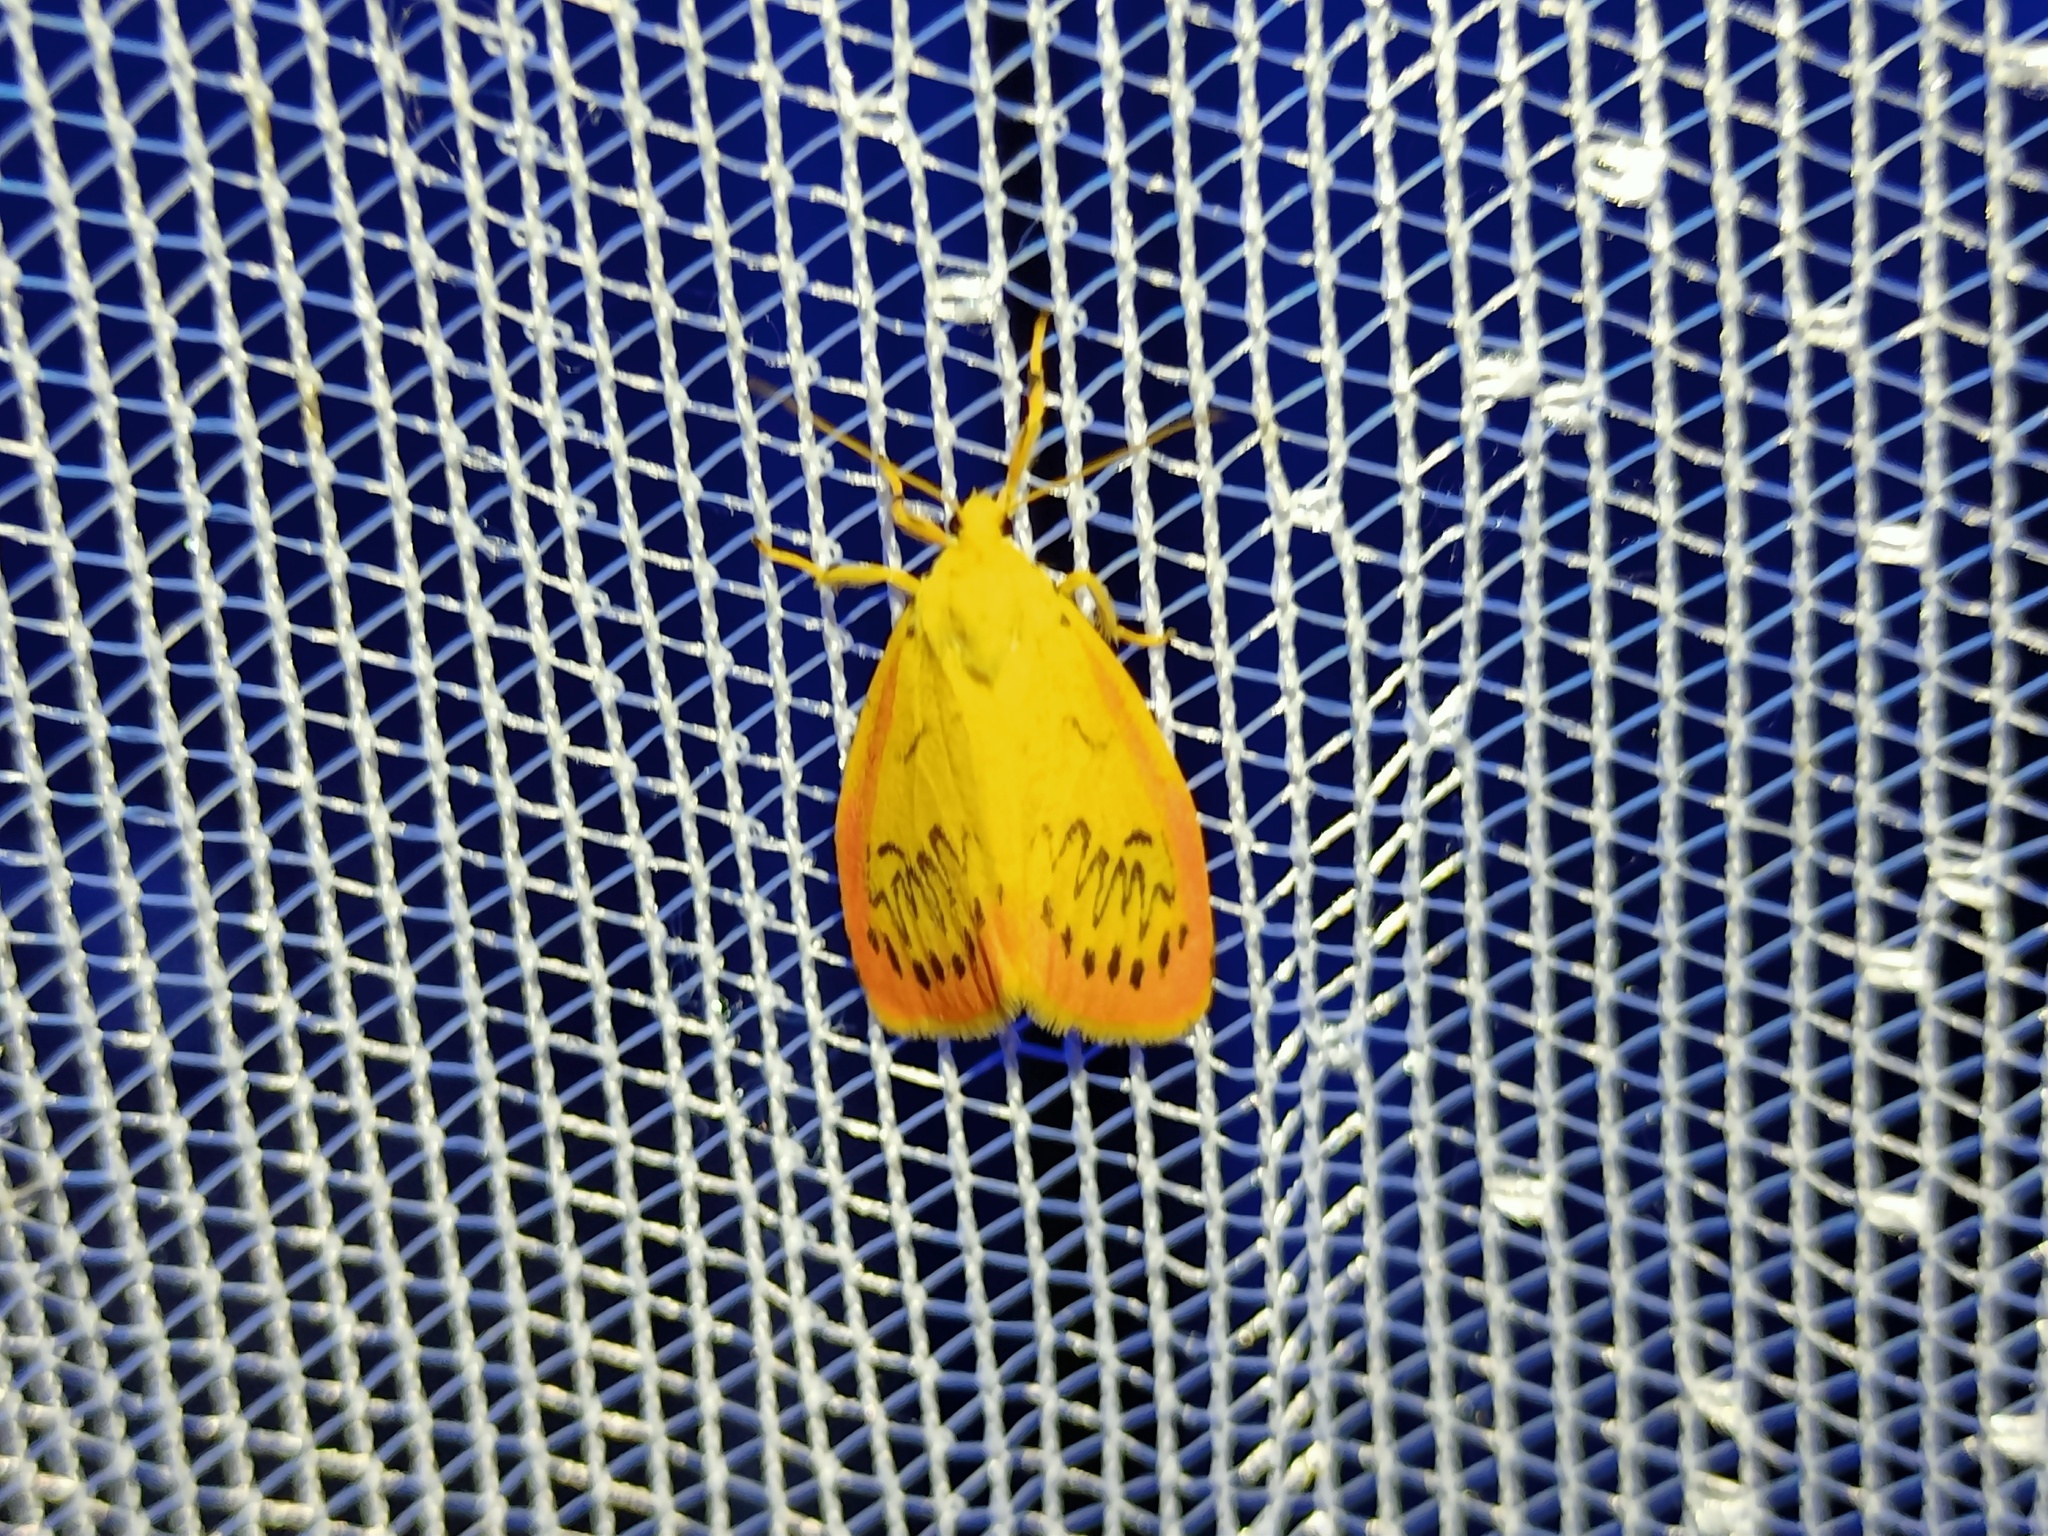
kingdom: Animalia
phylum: Arthropoda
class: Insecta
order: Lepidoptera
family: Erebidae
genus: Miltochrista
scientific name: Miltochrista miniata
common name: Rosy footman
